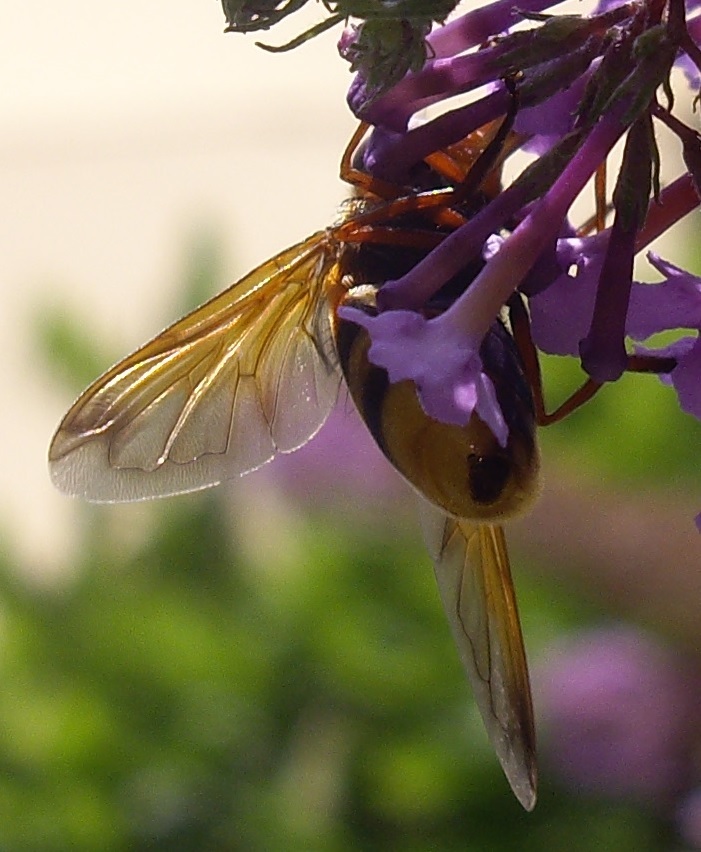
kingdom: Animalia
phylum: Arthropoda
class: Insecta
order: Diptera
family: Syrphidae
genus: Volucella
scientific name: Volucella zonaria
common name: Hornet hoverfly
